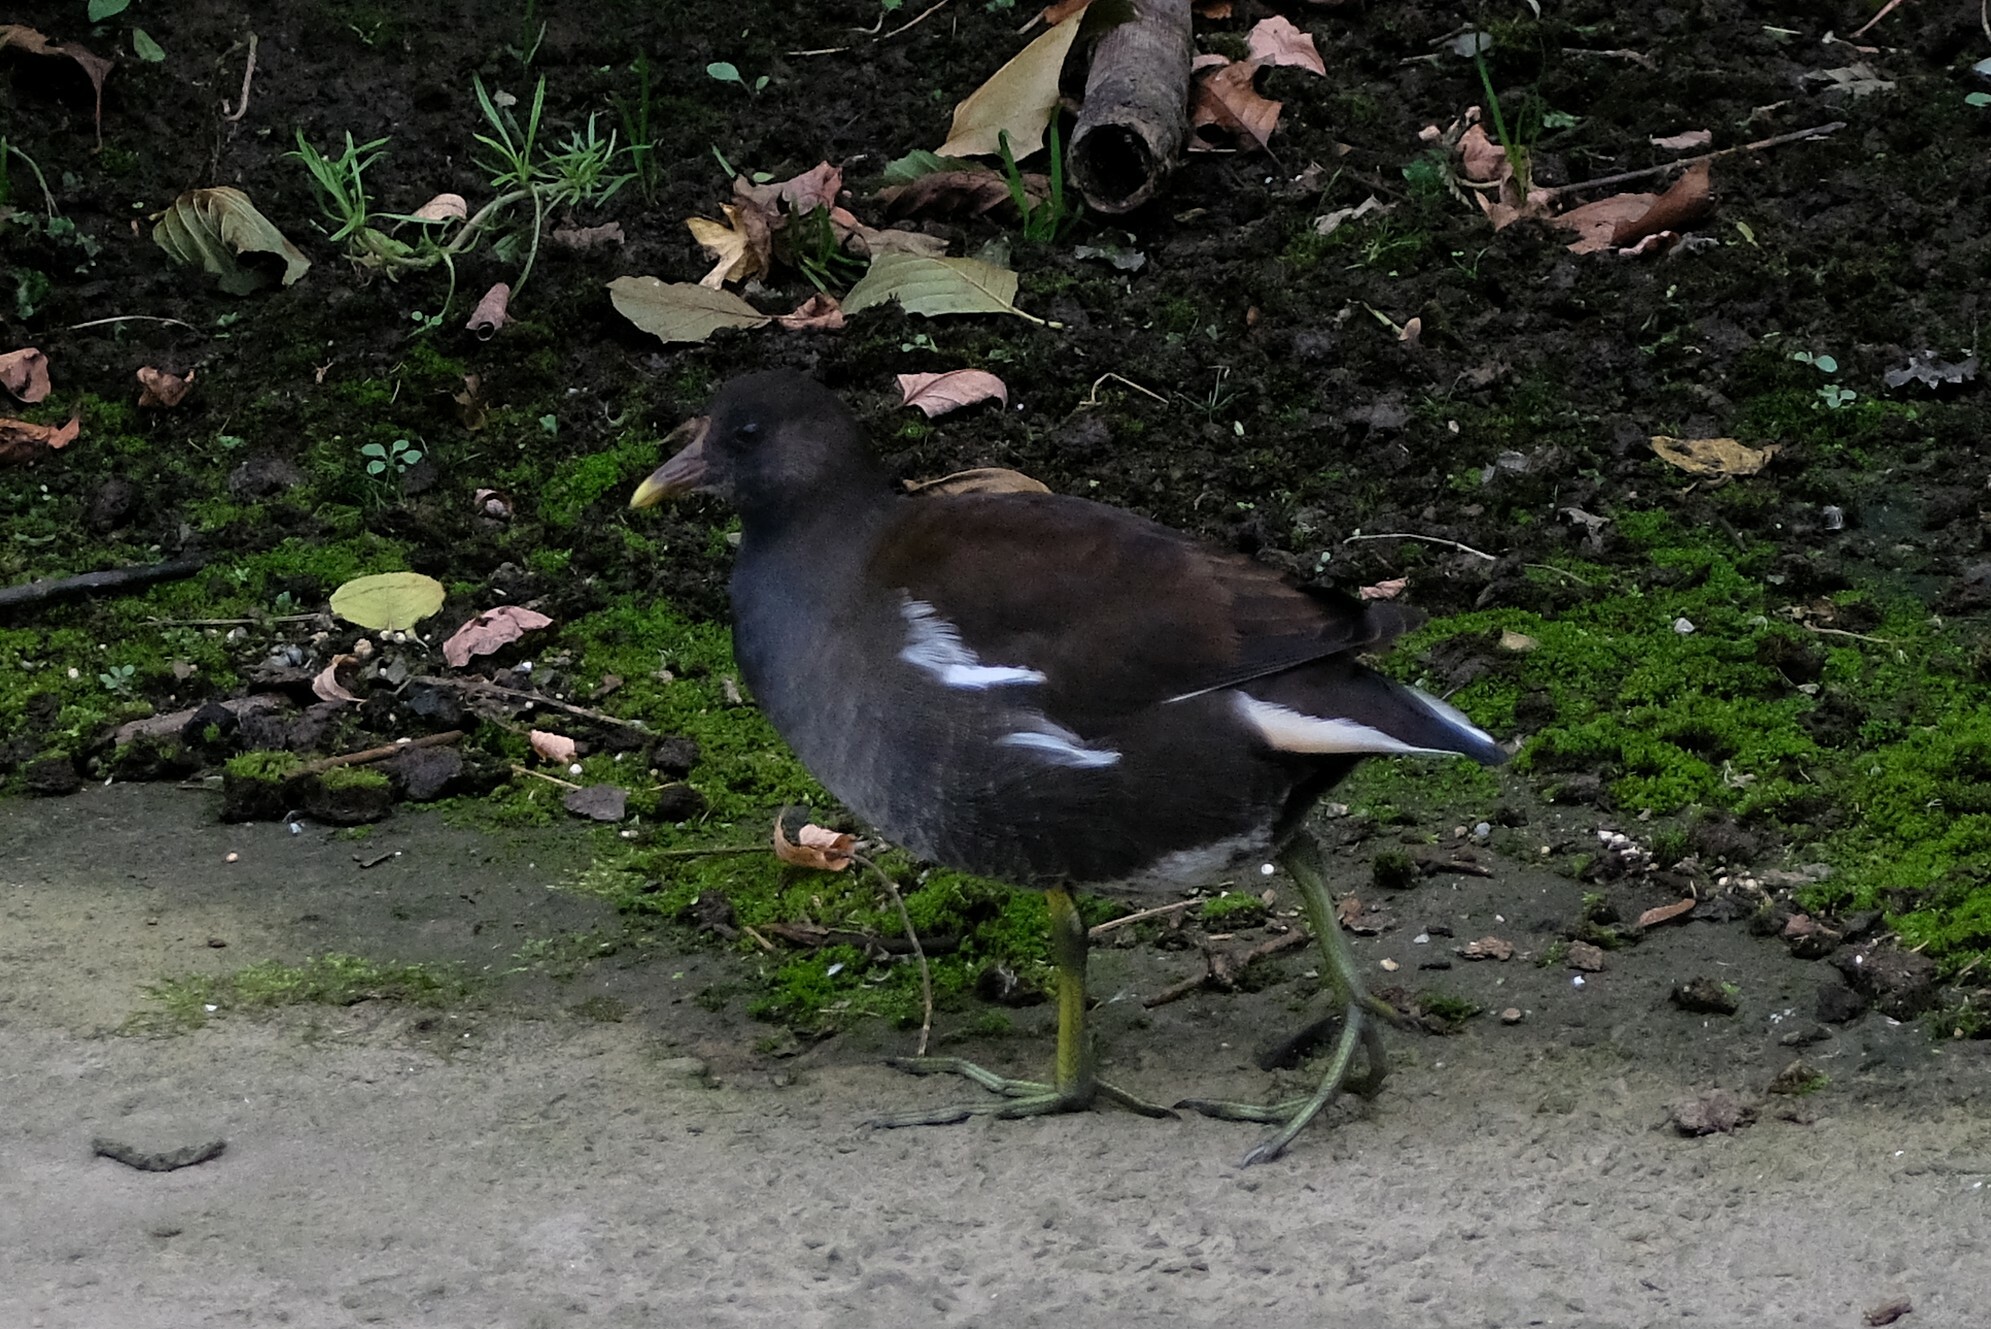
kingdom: Animalia
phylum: Chordata
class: Aves
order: Gruiformes
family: Rallidae
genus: Gallinula
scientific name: Gallinula chloropus
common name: Common moorhen
